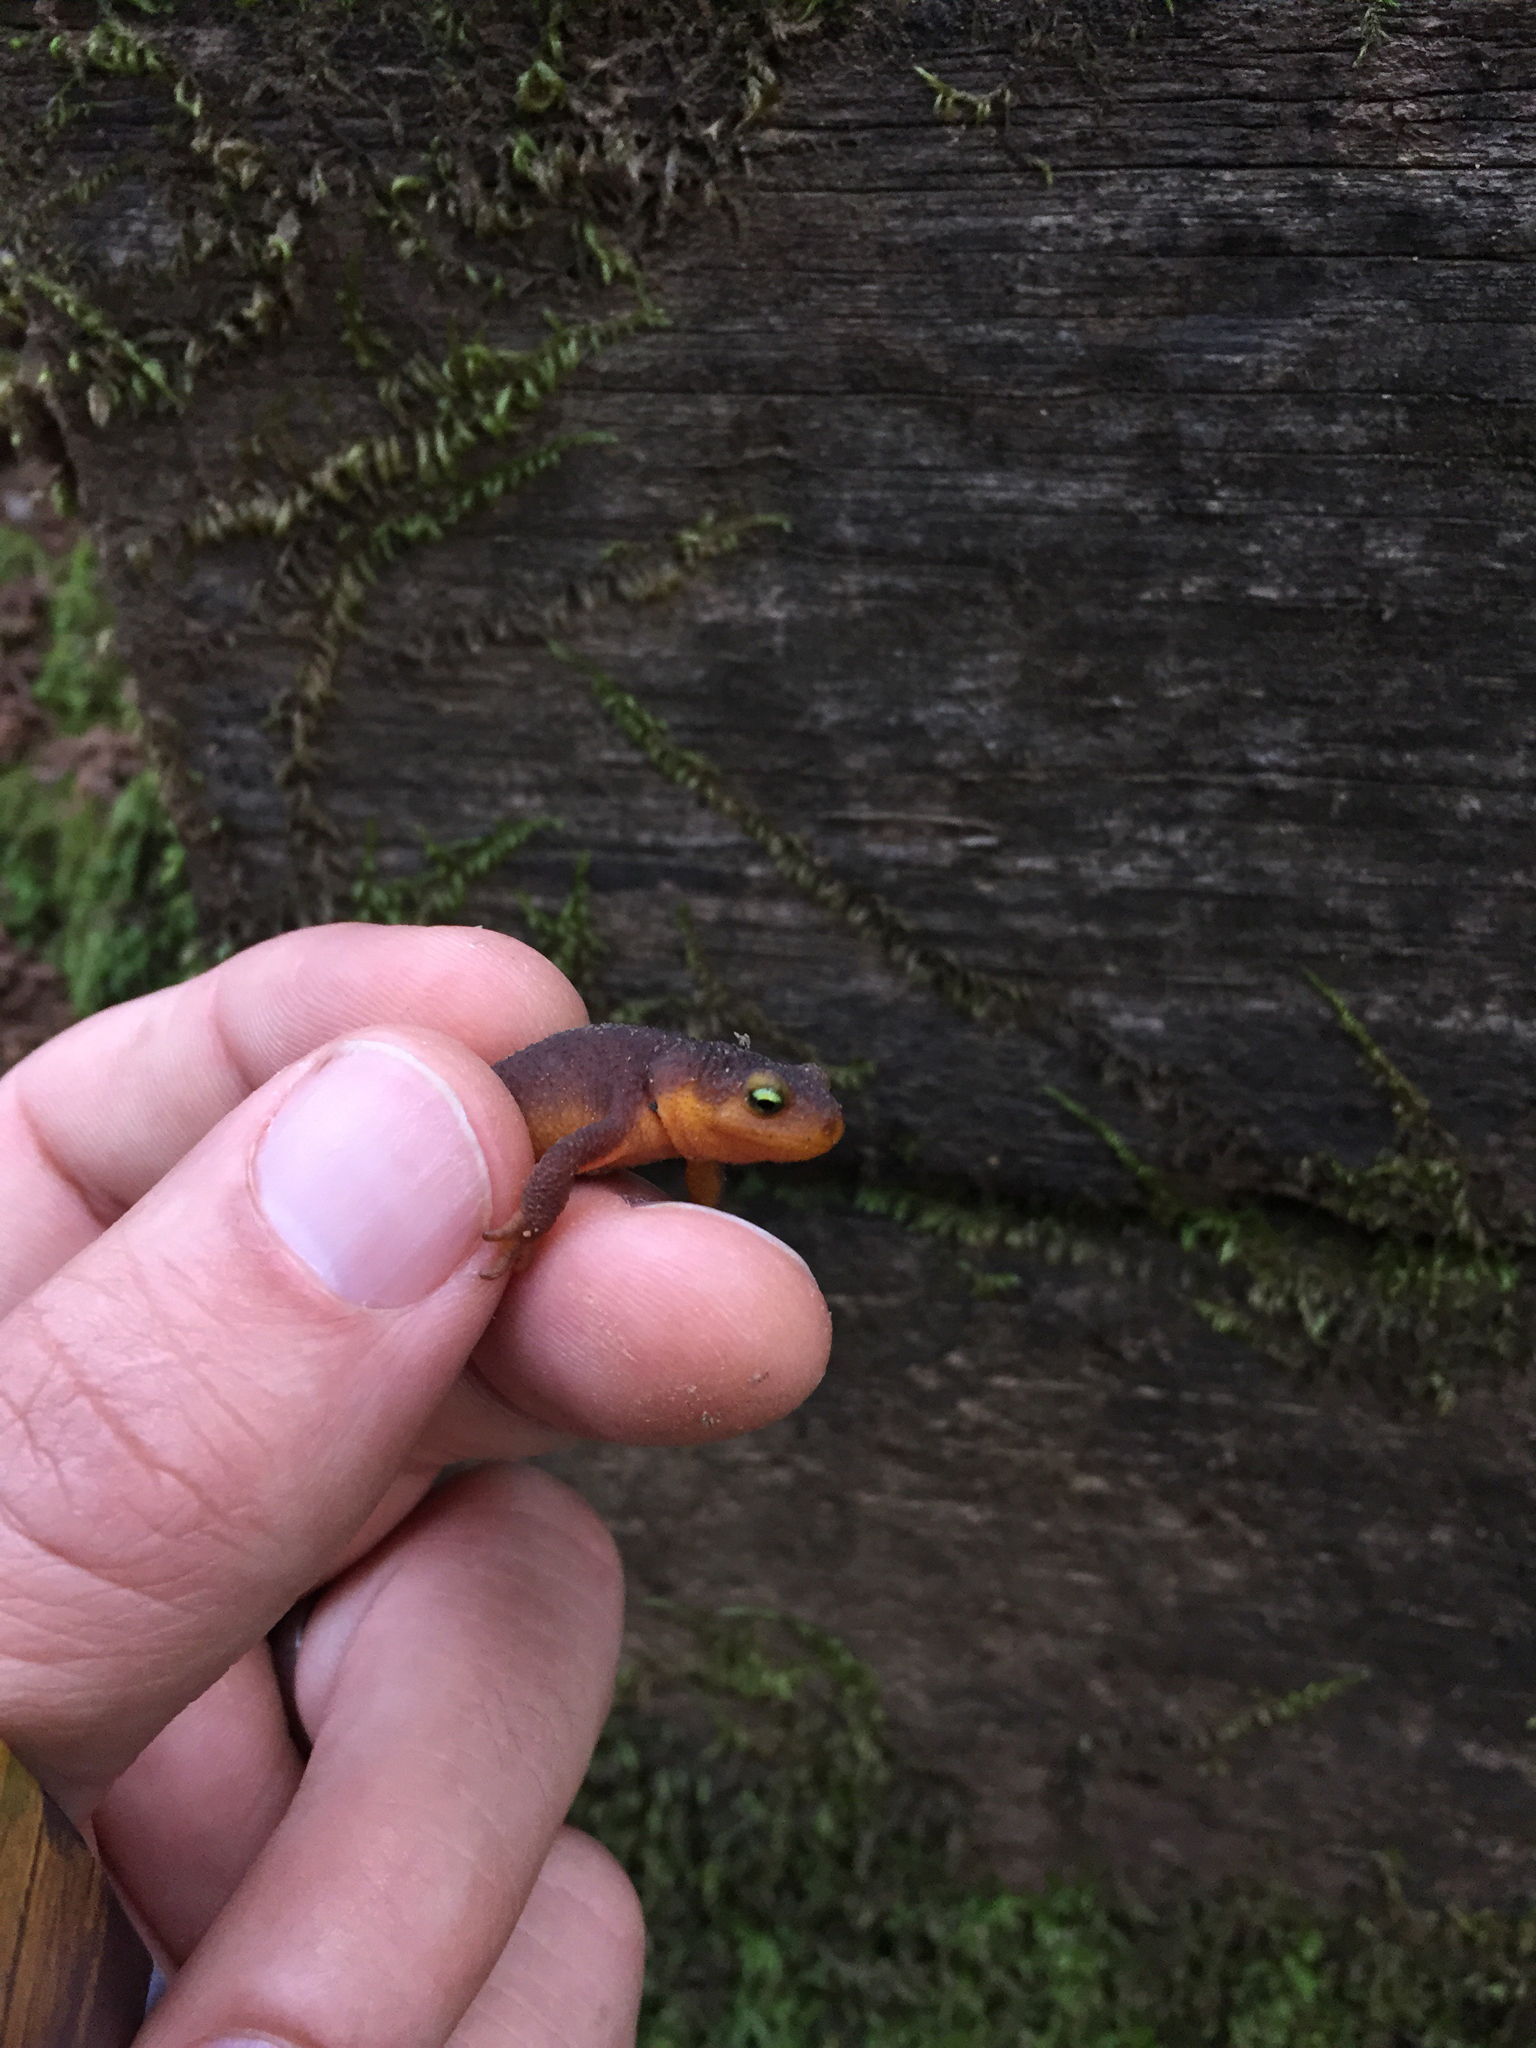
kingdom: Animalia
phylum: Chordata
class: Amphibia
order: Caudata
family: Salamandridae
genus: Taricha
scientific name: Taricha torosa
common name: California newt
